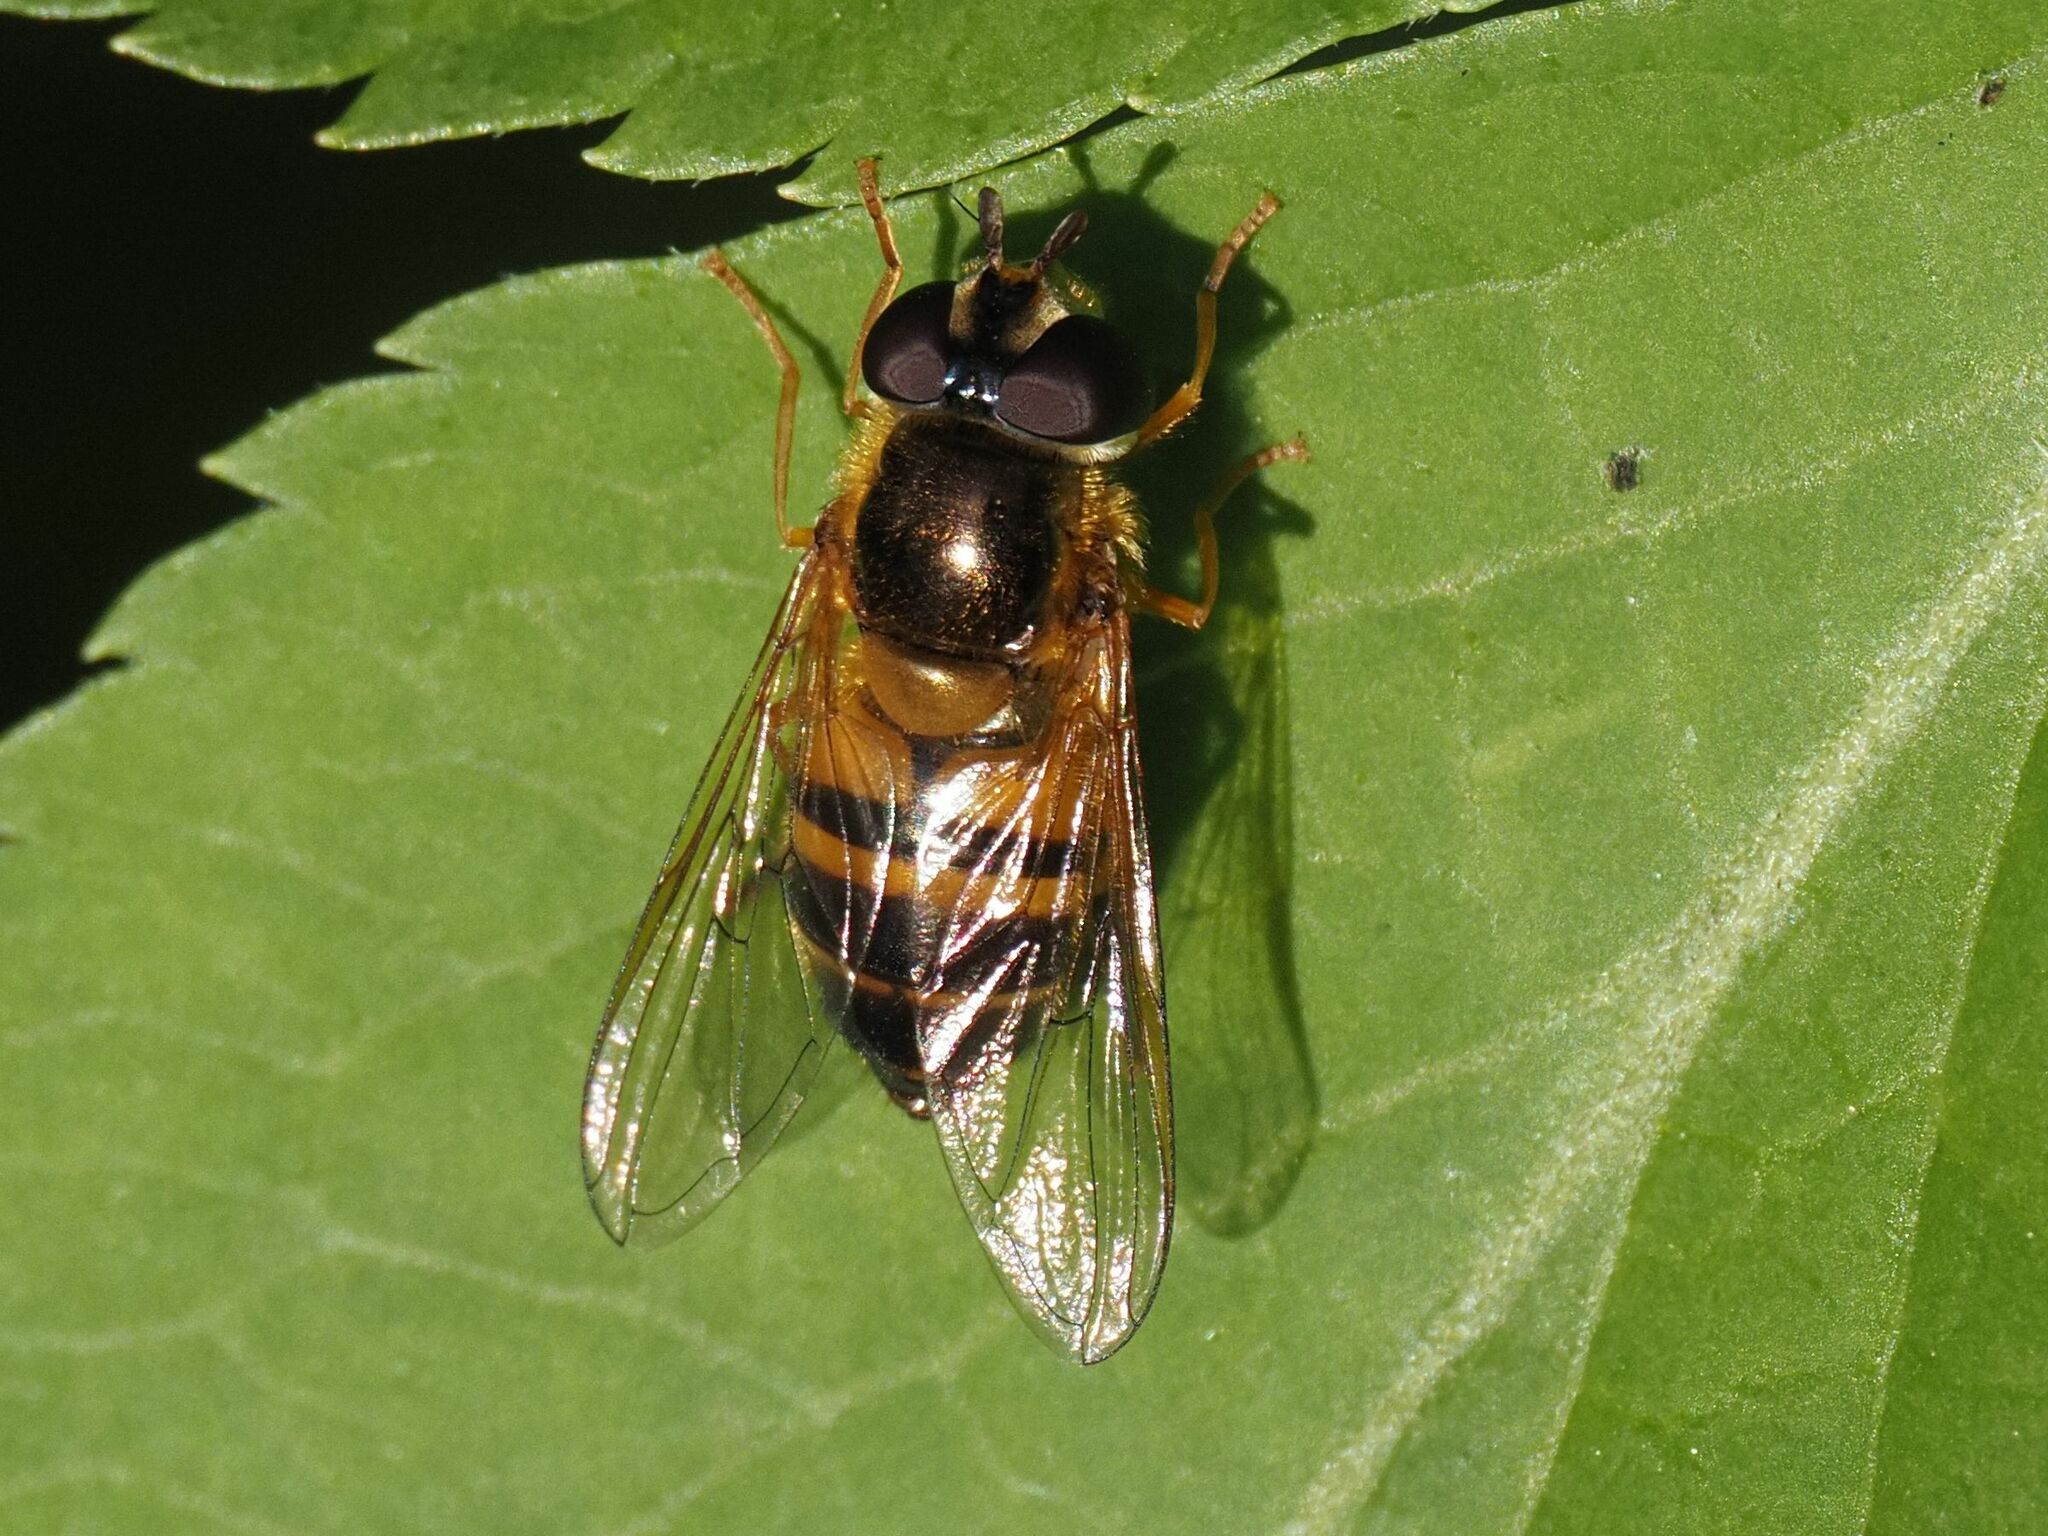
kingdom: Animalia
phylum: Arthropoda
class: Insecta
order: Diptera
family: Syrphidae
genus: Epistrophe
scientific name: Epistrophe eligans
